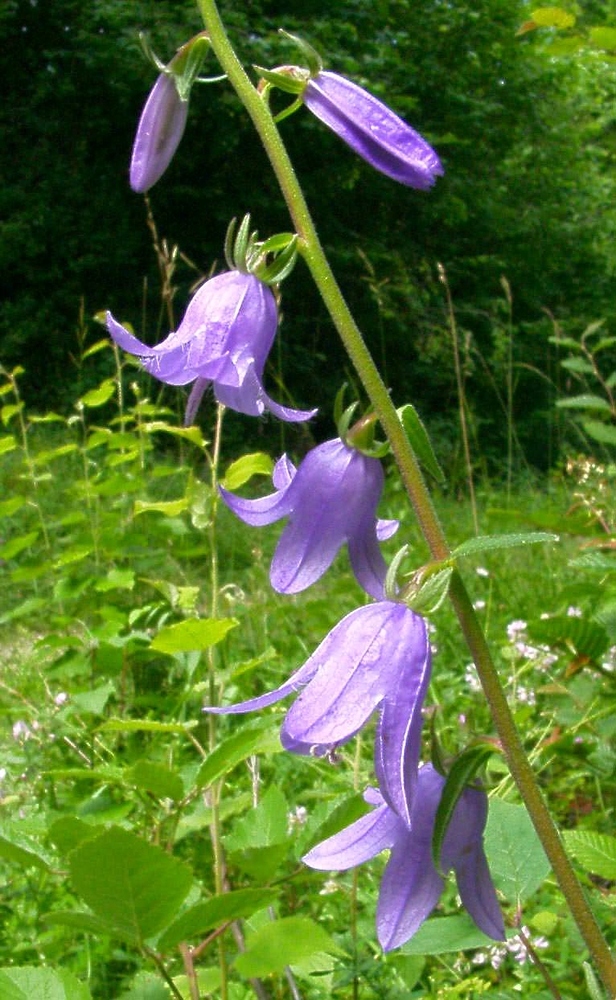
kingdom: Plantae
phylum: Tracheophyta
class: Magnoliopsida
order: Asterales
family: Campanulaceae
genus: Campanula
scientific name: Campanula rapunculoides
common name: Creeping bellflower
